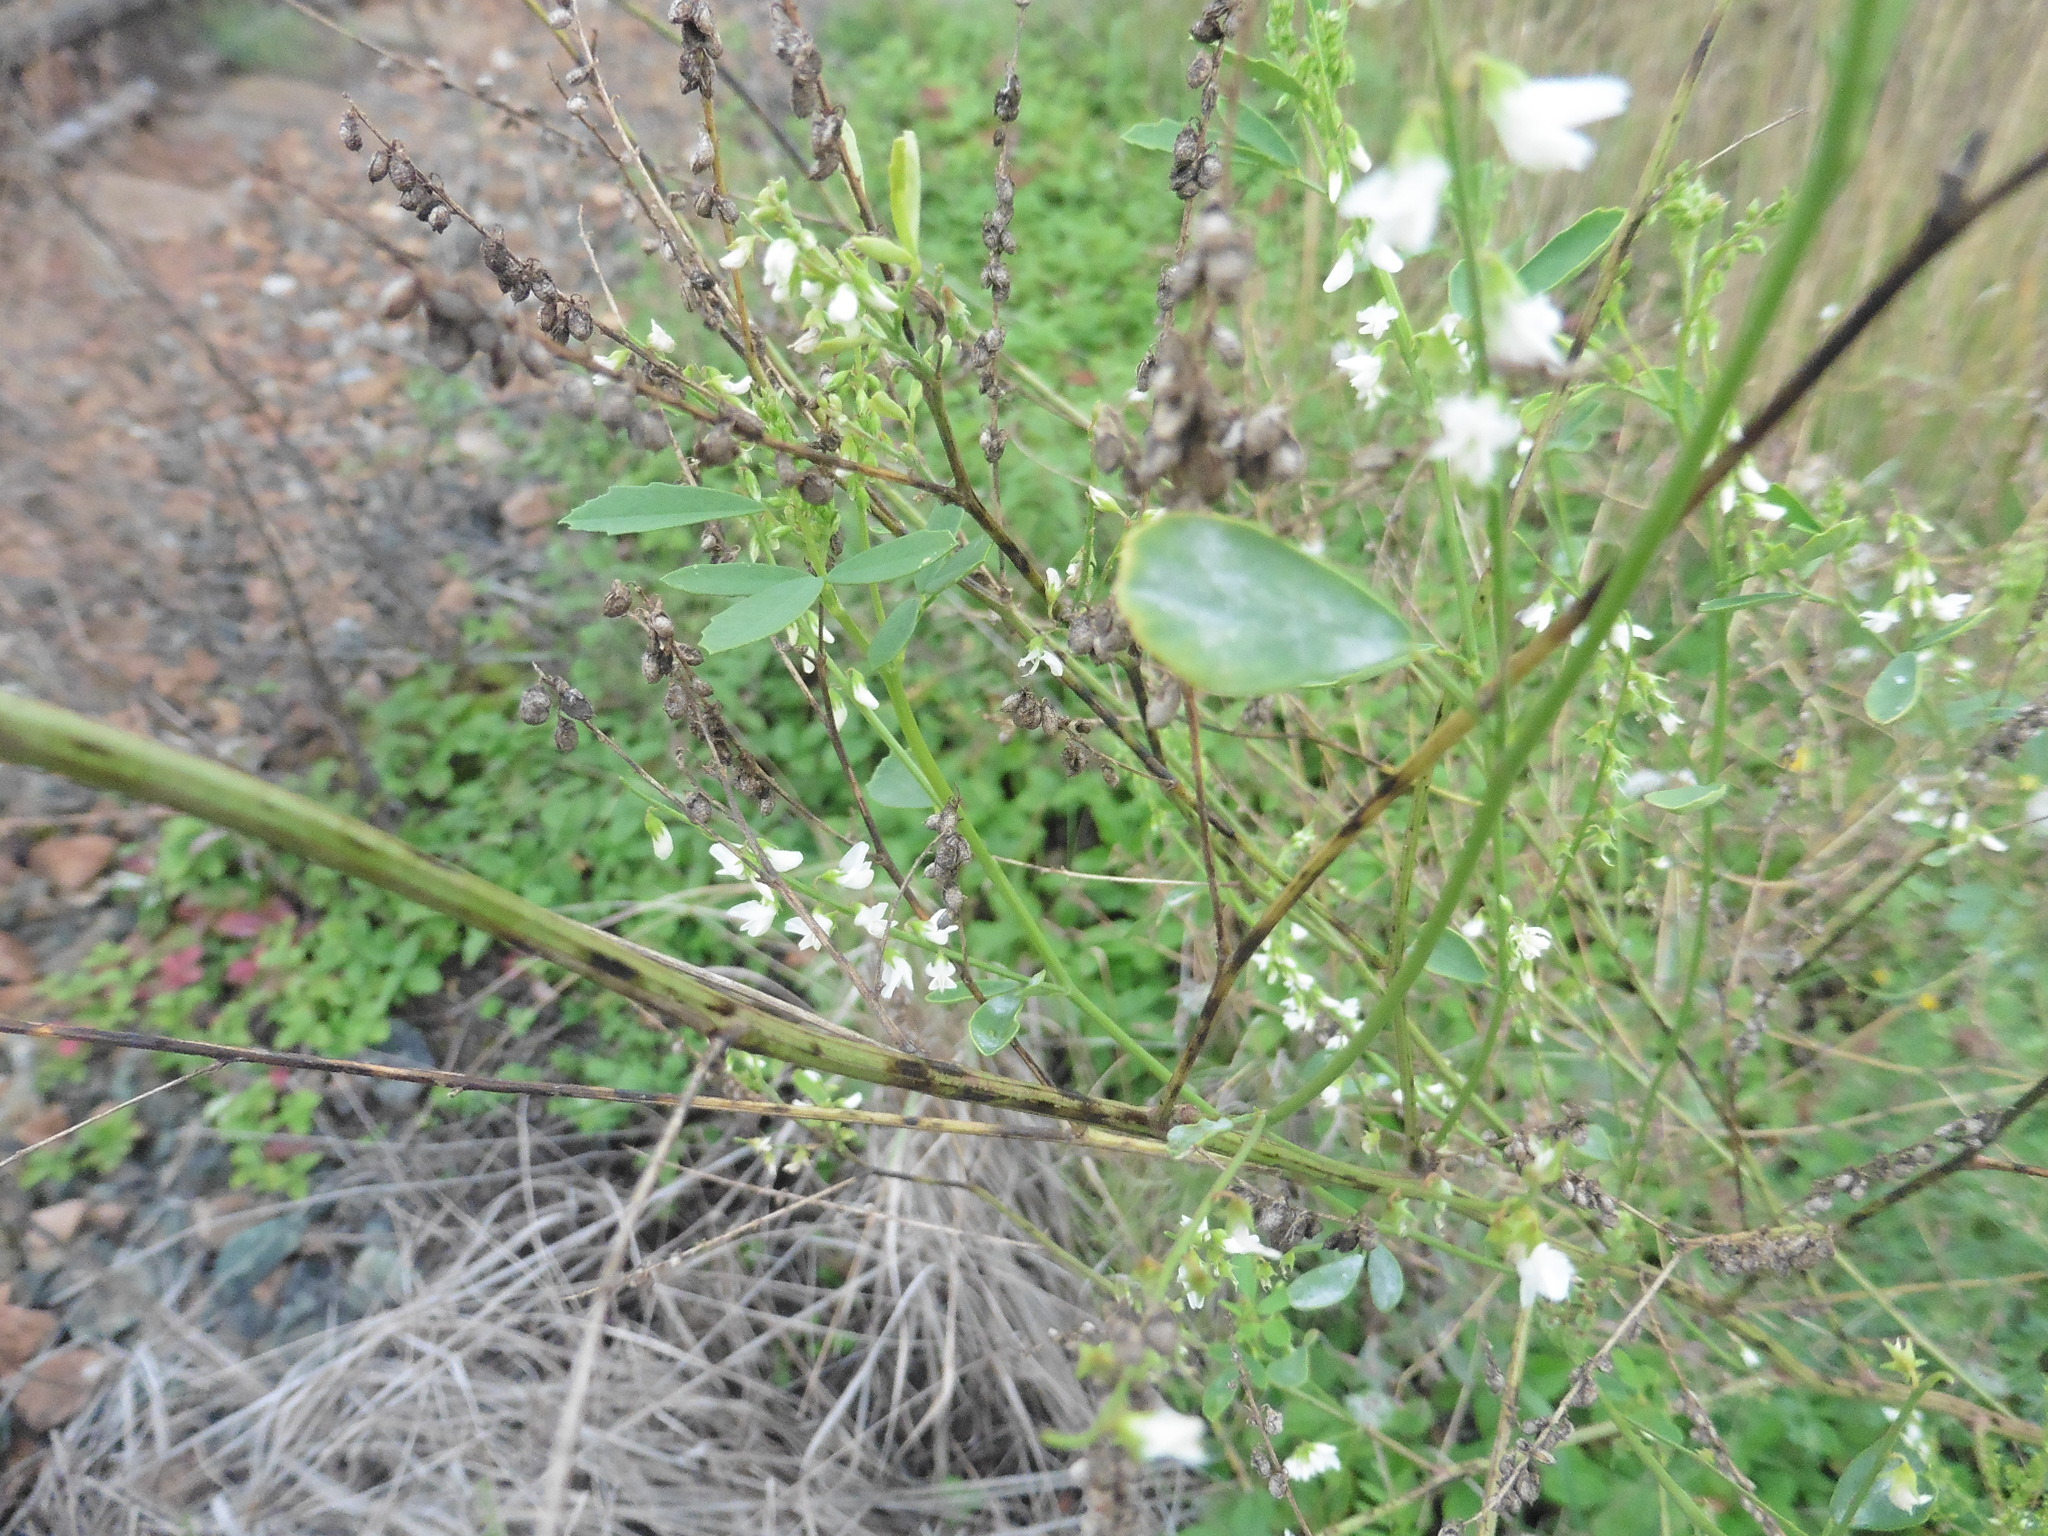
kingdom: Plantae
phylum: Tracheophyta
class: Magnoliopsida
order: Fabales
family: Fabaceae
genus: Melilotus
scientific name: Melilotus albus
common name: White melilot
